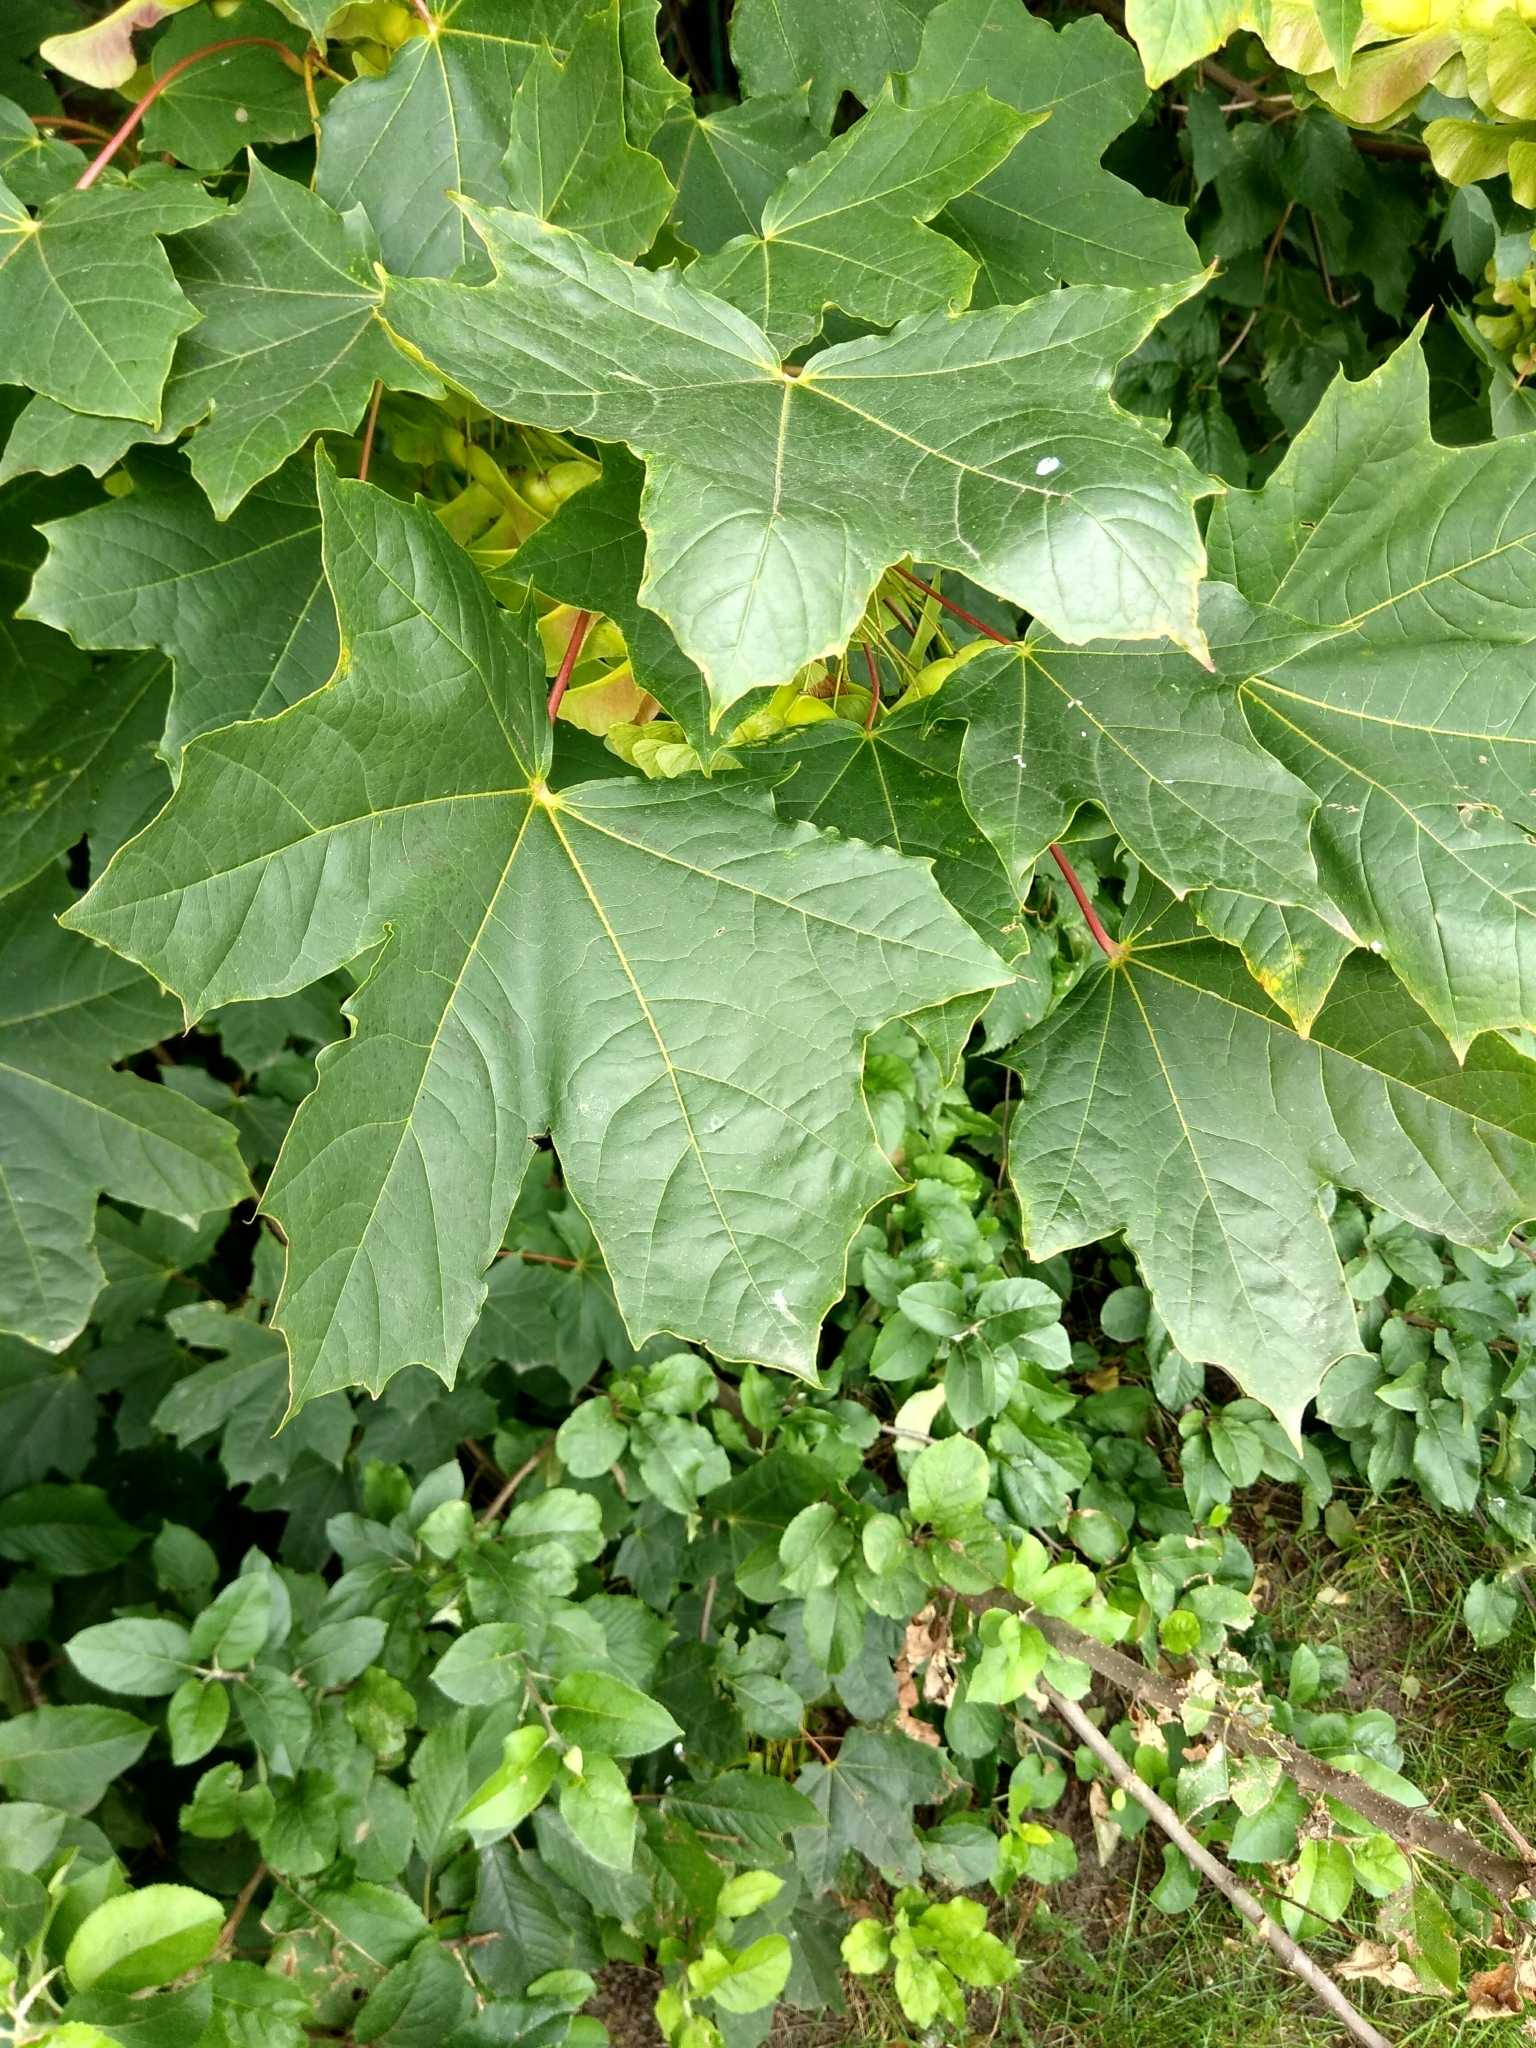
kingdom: Plantae
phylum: Tracheophyta
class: Magnoliopsida
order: Sapindales
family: Sapindaceae
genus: Acer
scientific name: Acer platanoides
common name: Norway maple
